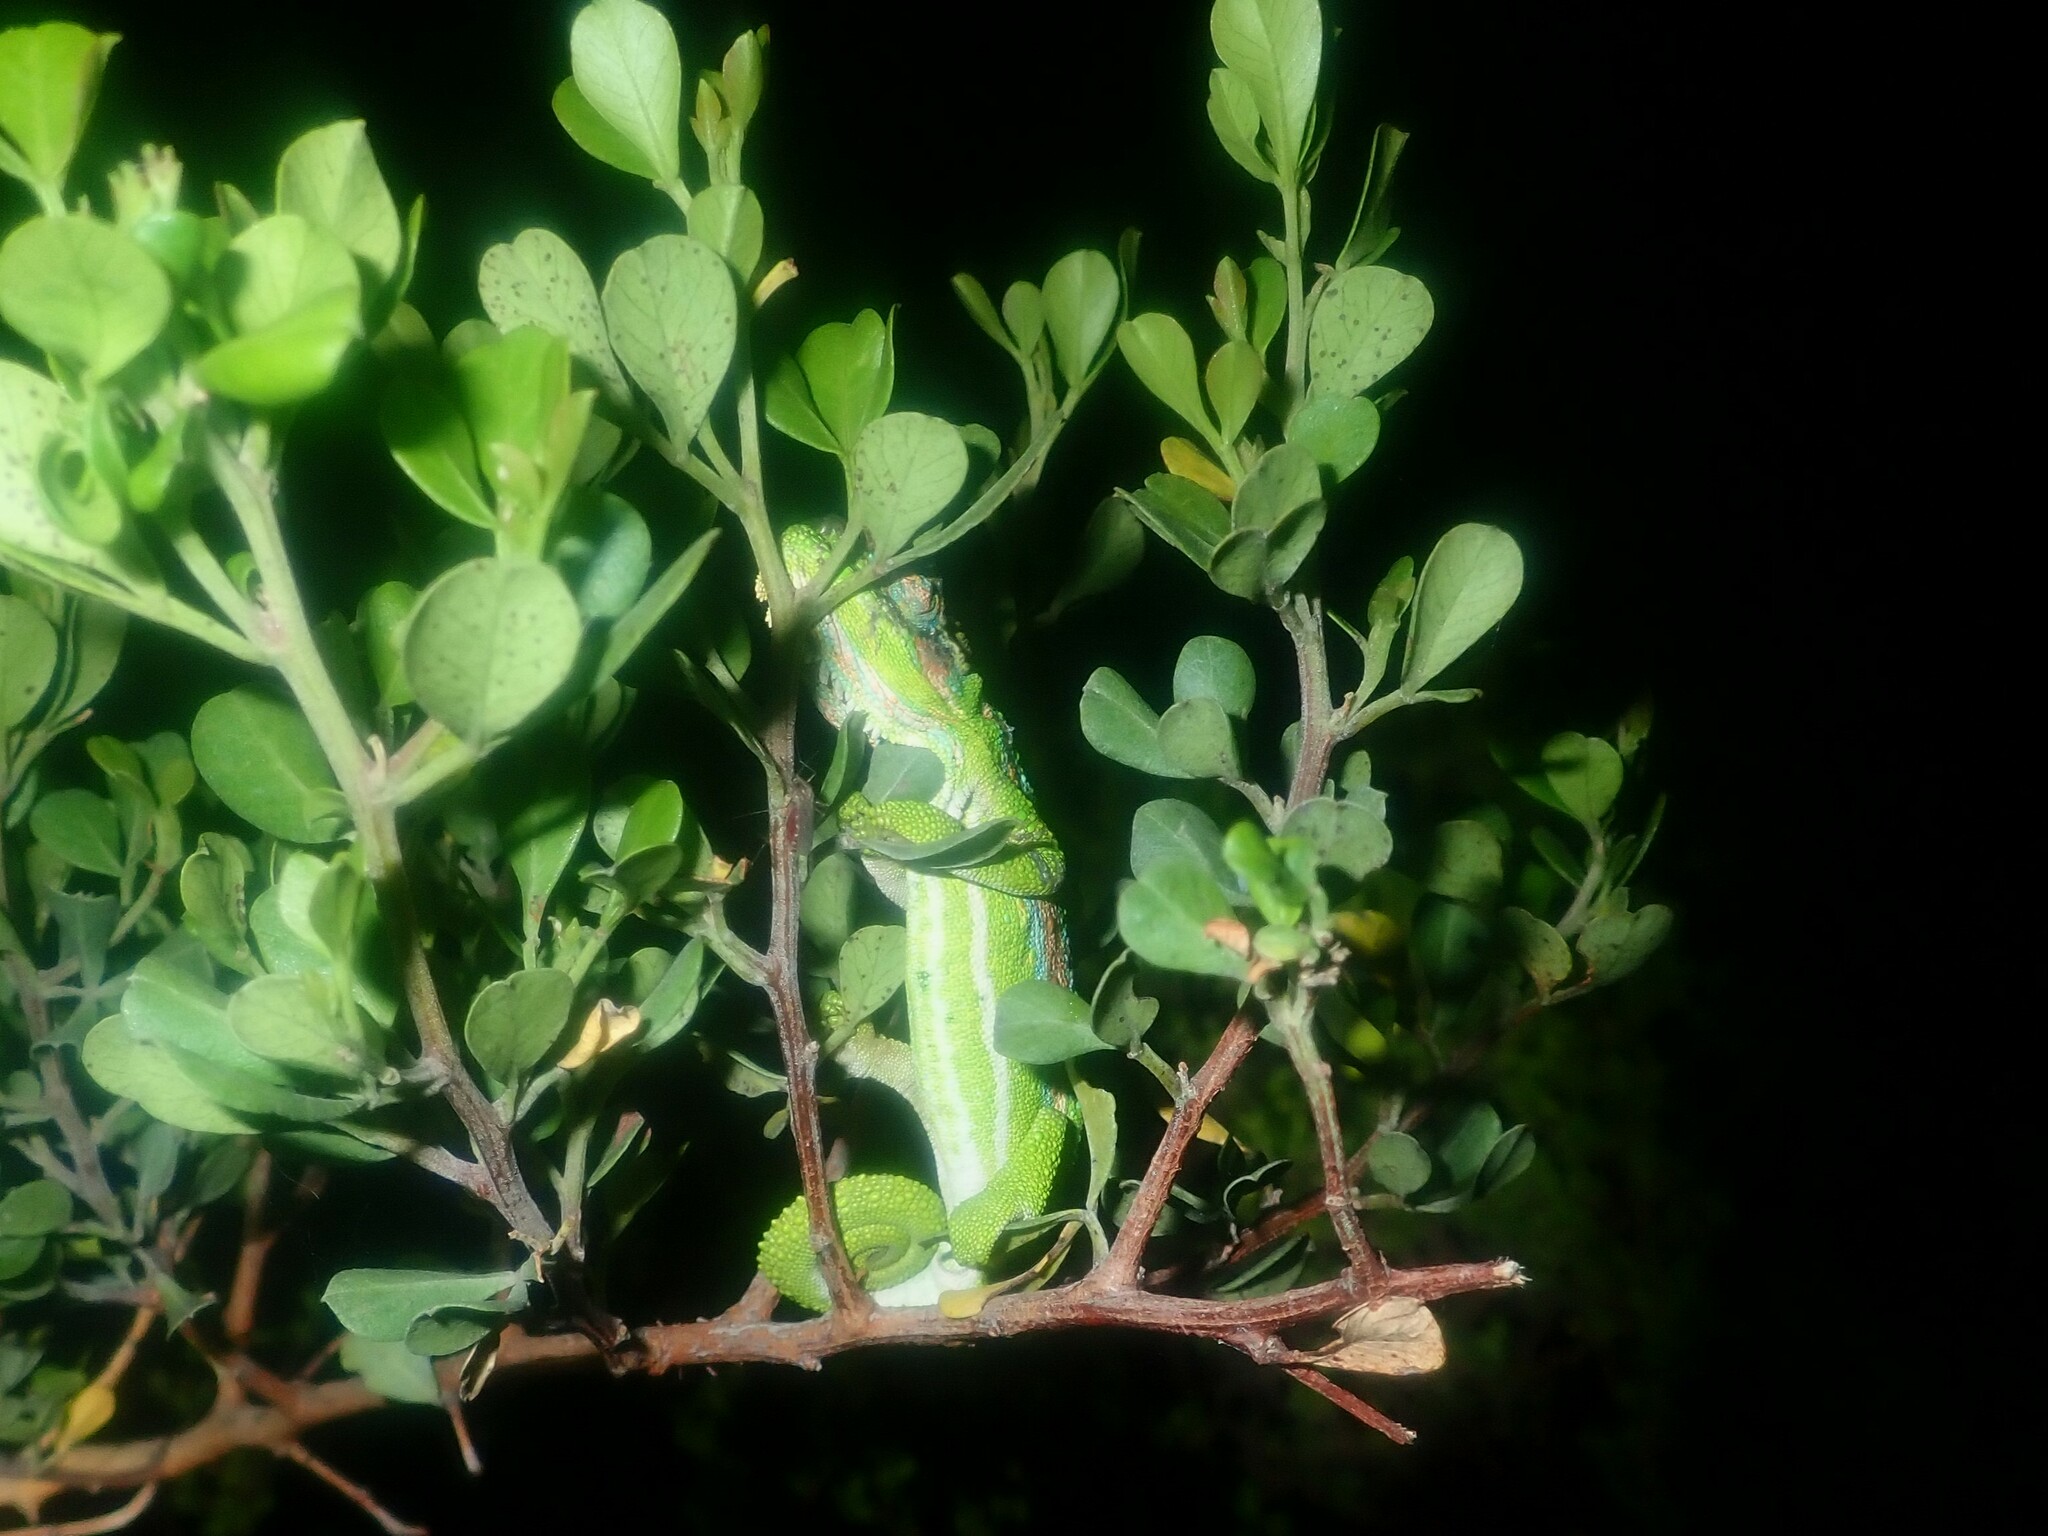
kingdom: Animalia
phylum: Chordata
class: Squamata
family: Chamaeleonidae
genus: Bradypodion
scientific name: Bradypodion pumilum
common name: Cape dwarf chameleon
